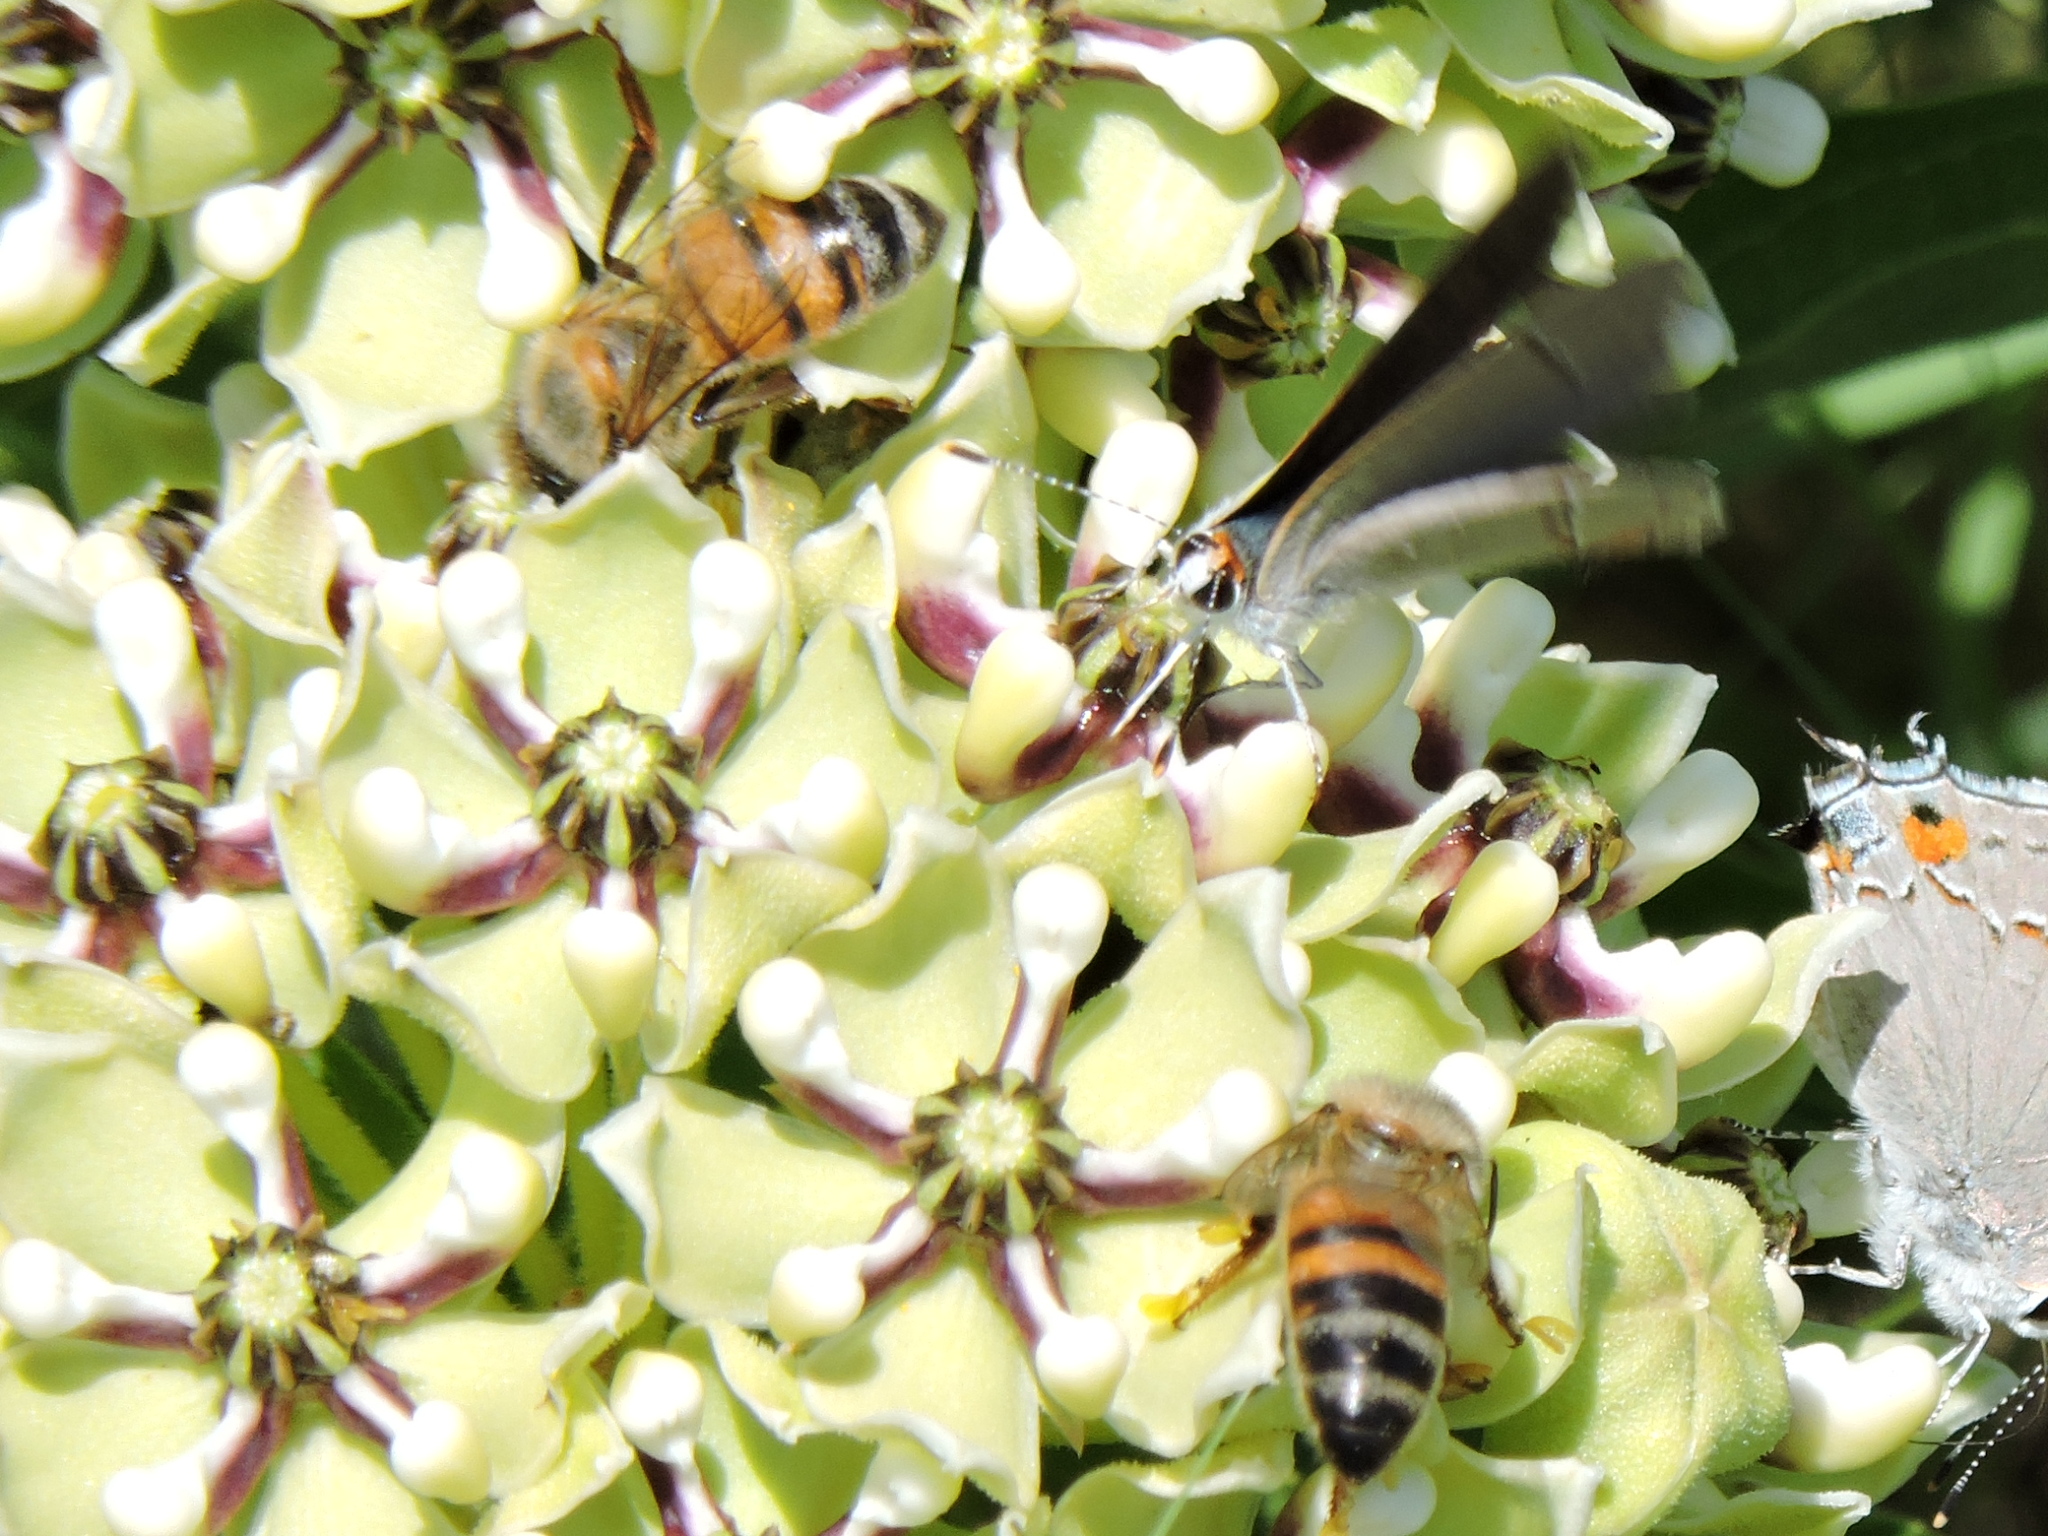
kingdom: Animalia
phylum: Arthropoda
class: Insecta
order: Hymenoptera
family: Apidae
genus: Apis
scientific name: Apis mellifera
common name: Honey bee
